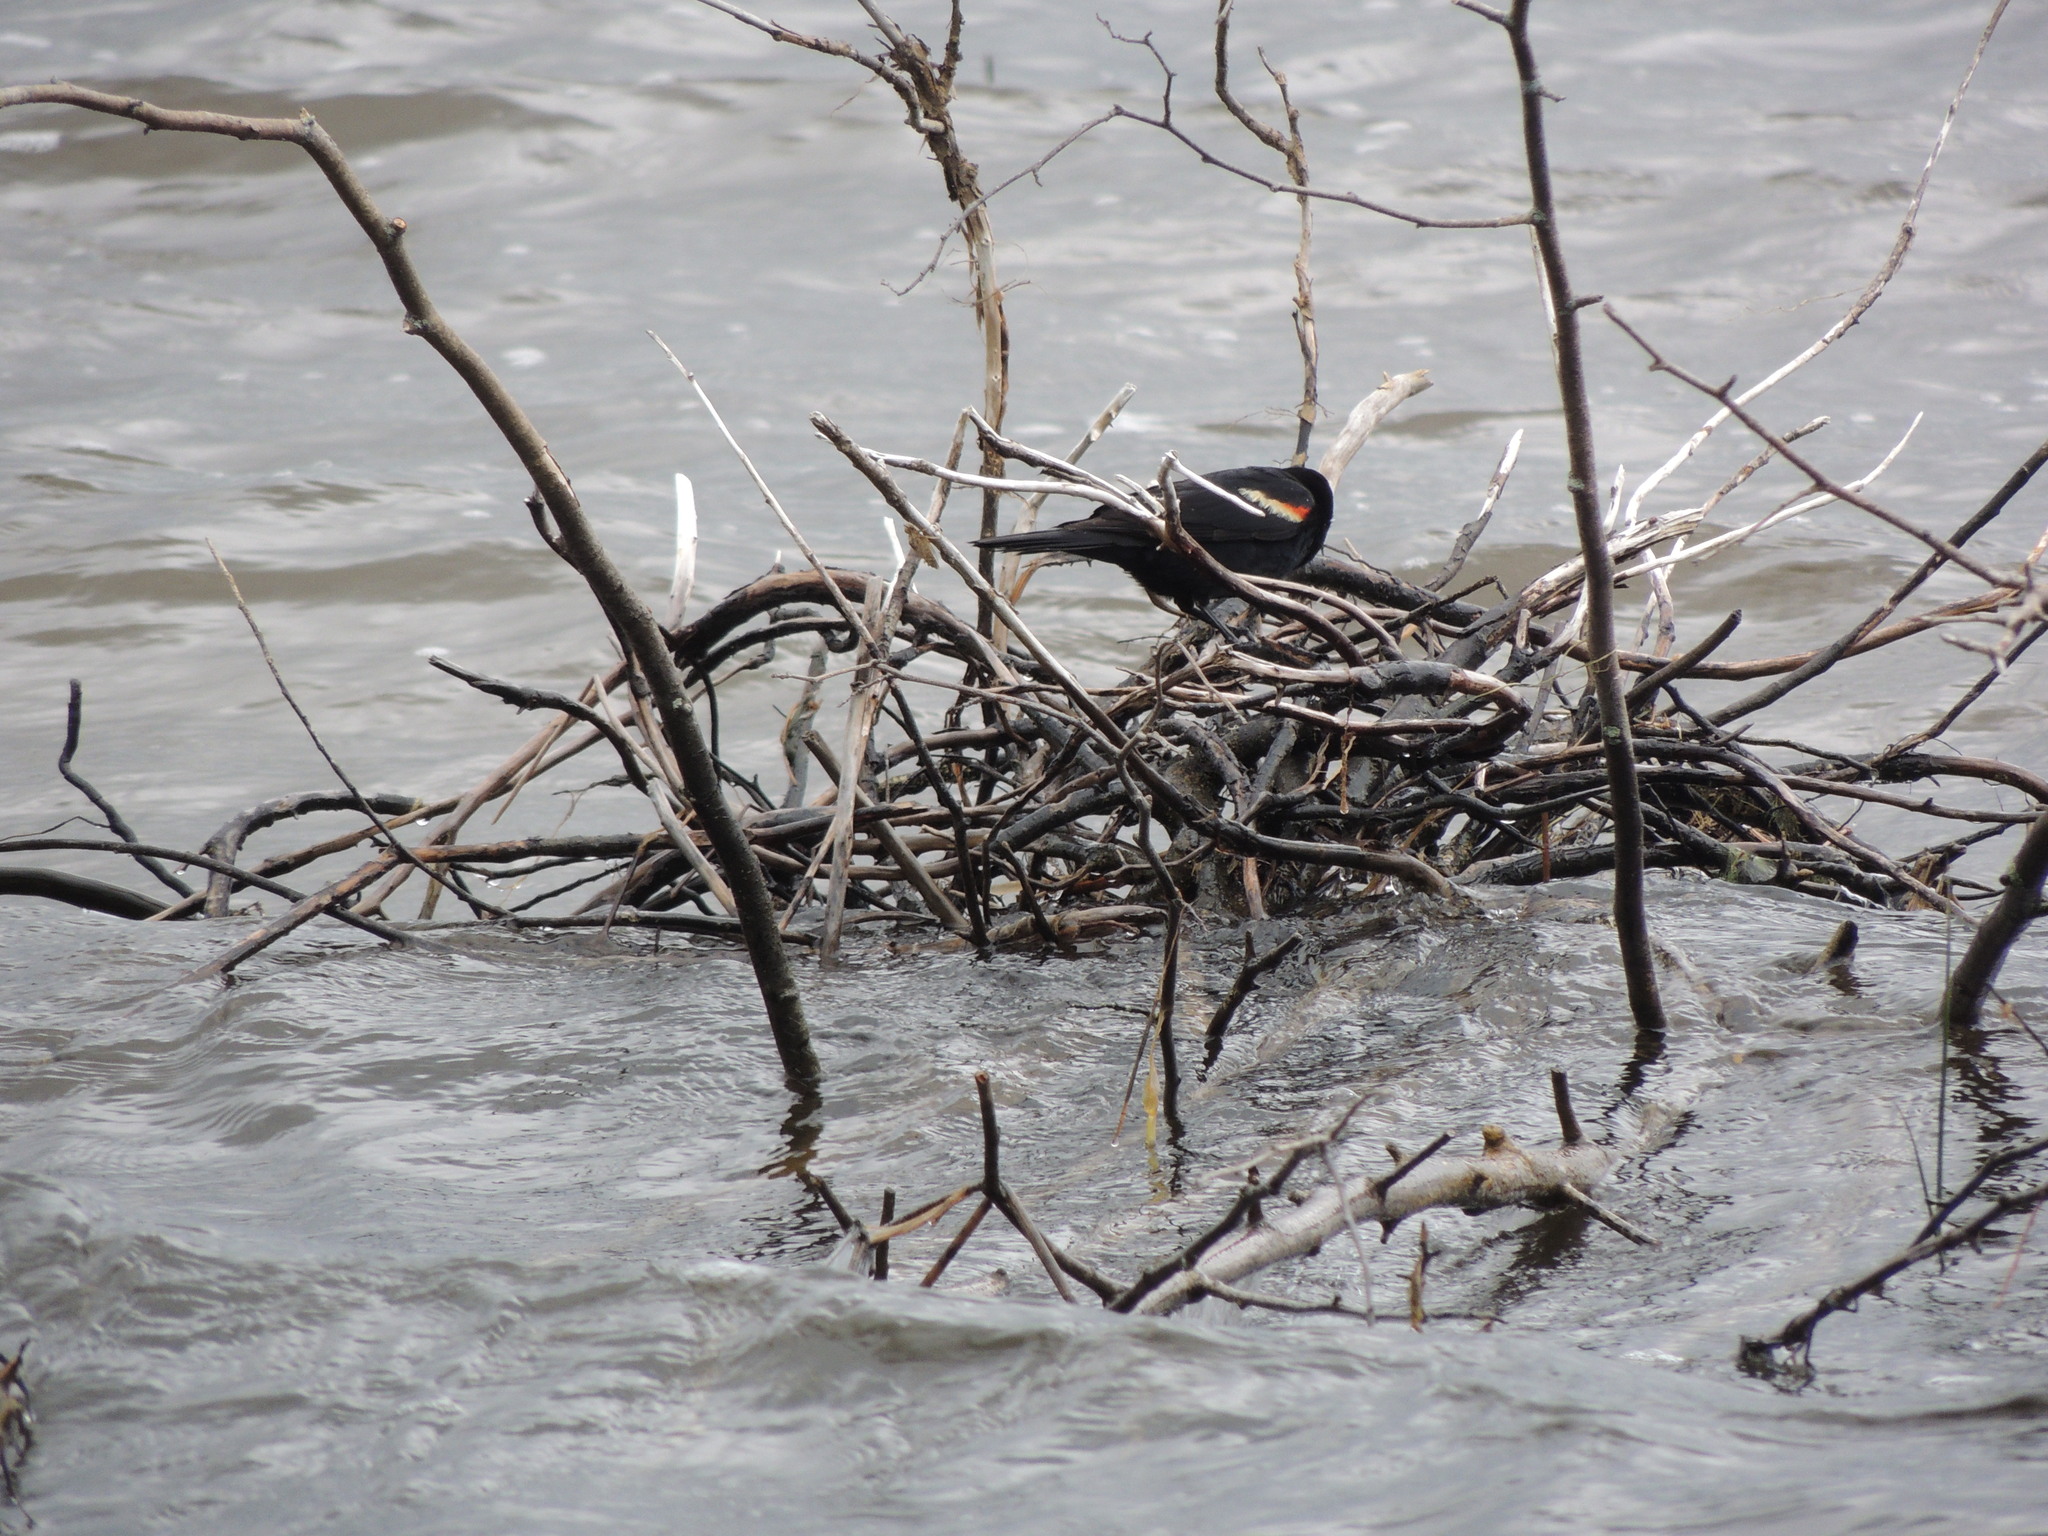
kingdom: Animalia
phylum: Chordata
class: Aves
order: Passeriformes
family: Icteridae
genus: Agelaius
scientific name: Agelaius phoeniceus
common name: Red-winged blackbird
